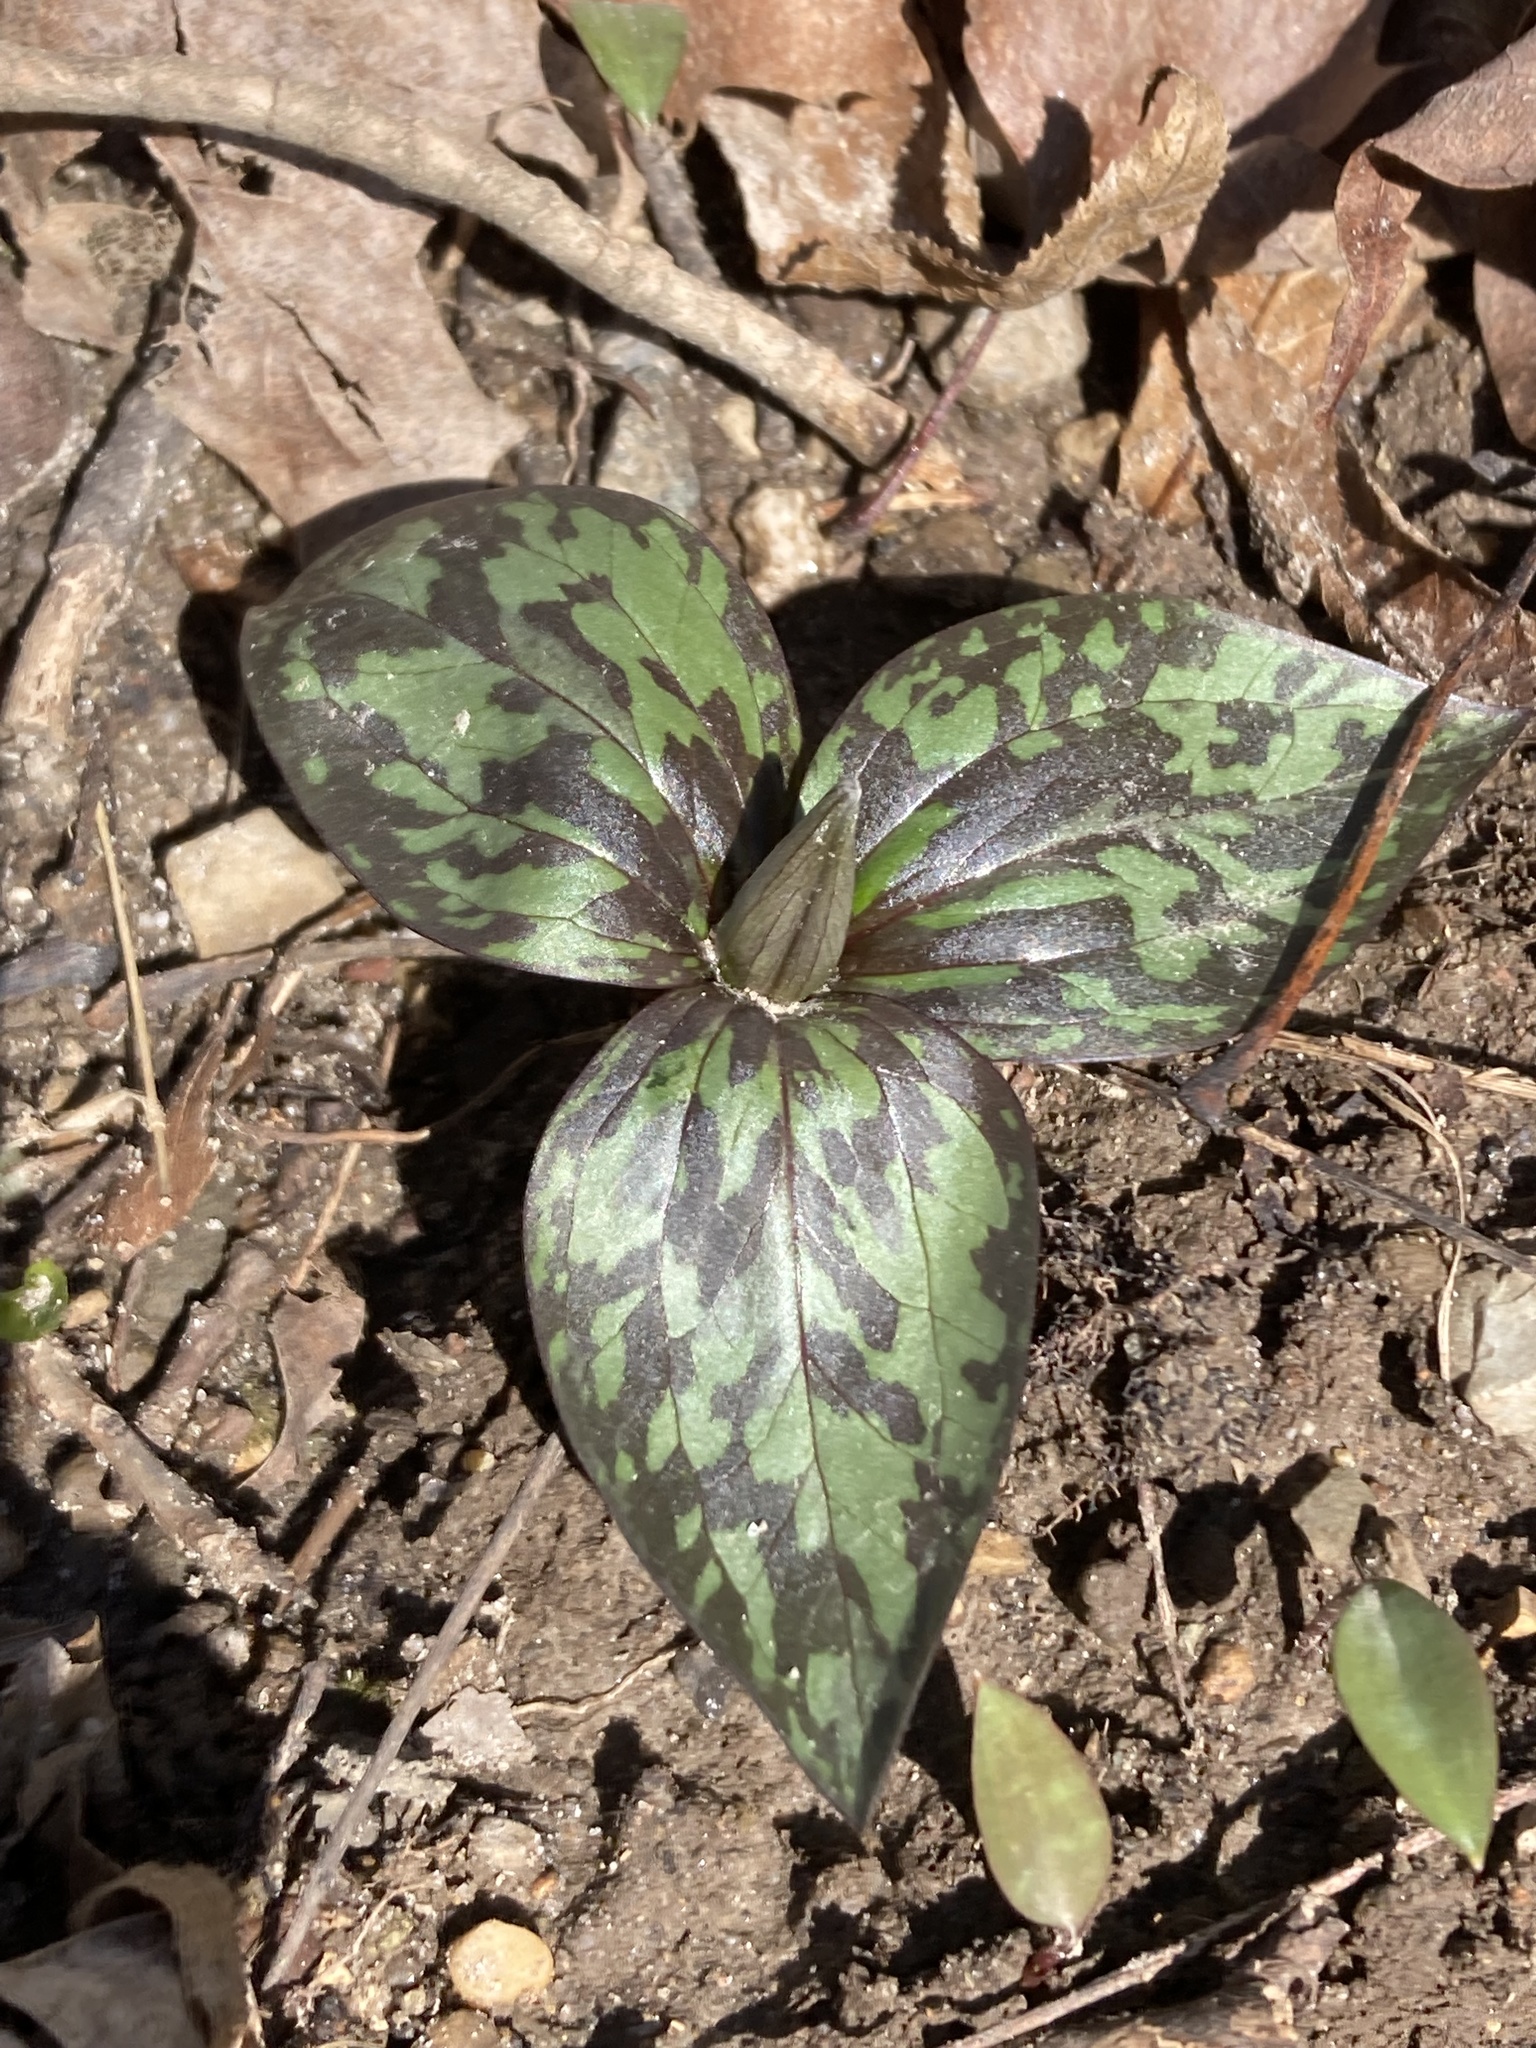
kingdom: Plantae
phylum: Tracheophyta
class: Liliopsida
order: Liliales
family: Melanthiaceae
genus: Trillium
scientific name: Trillium recurvatum
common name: Bloody butcher
